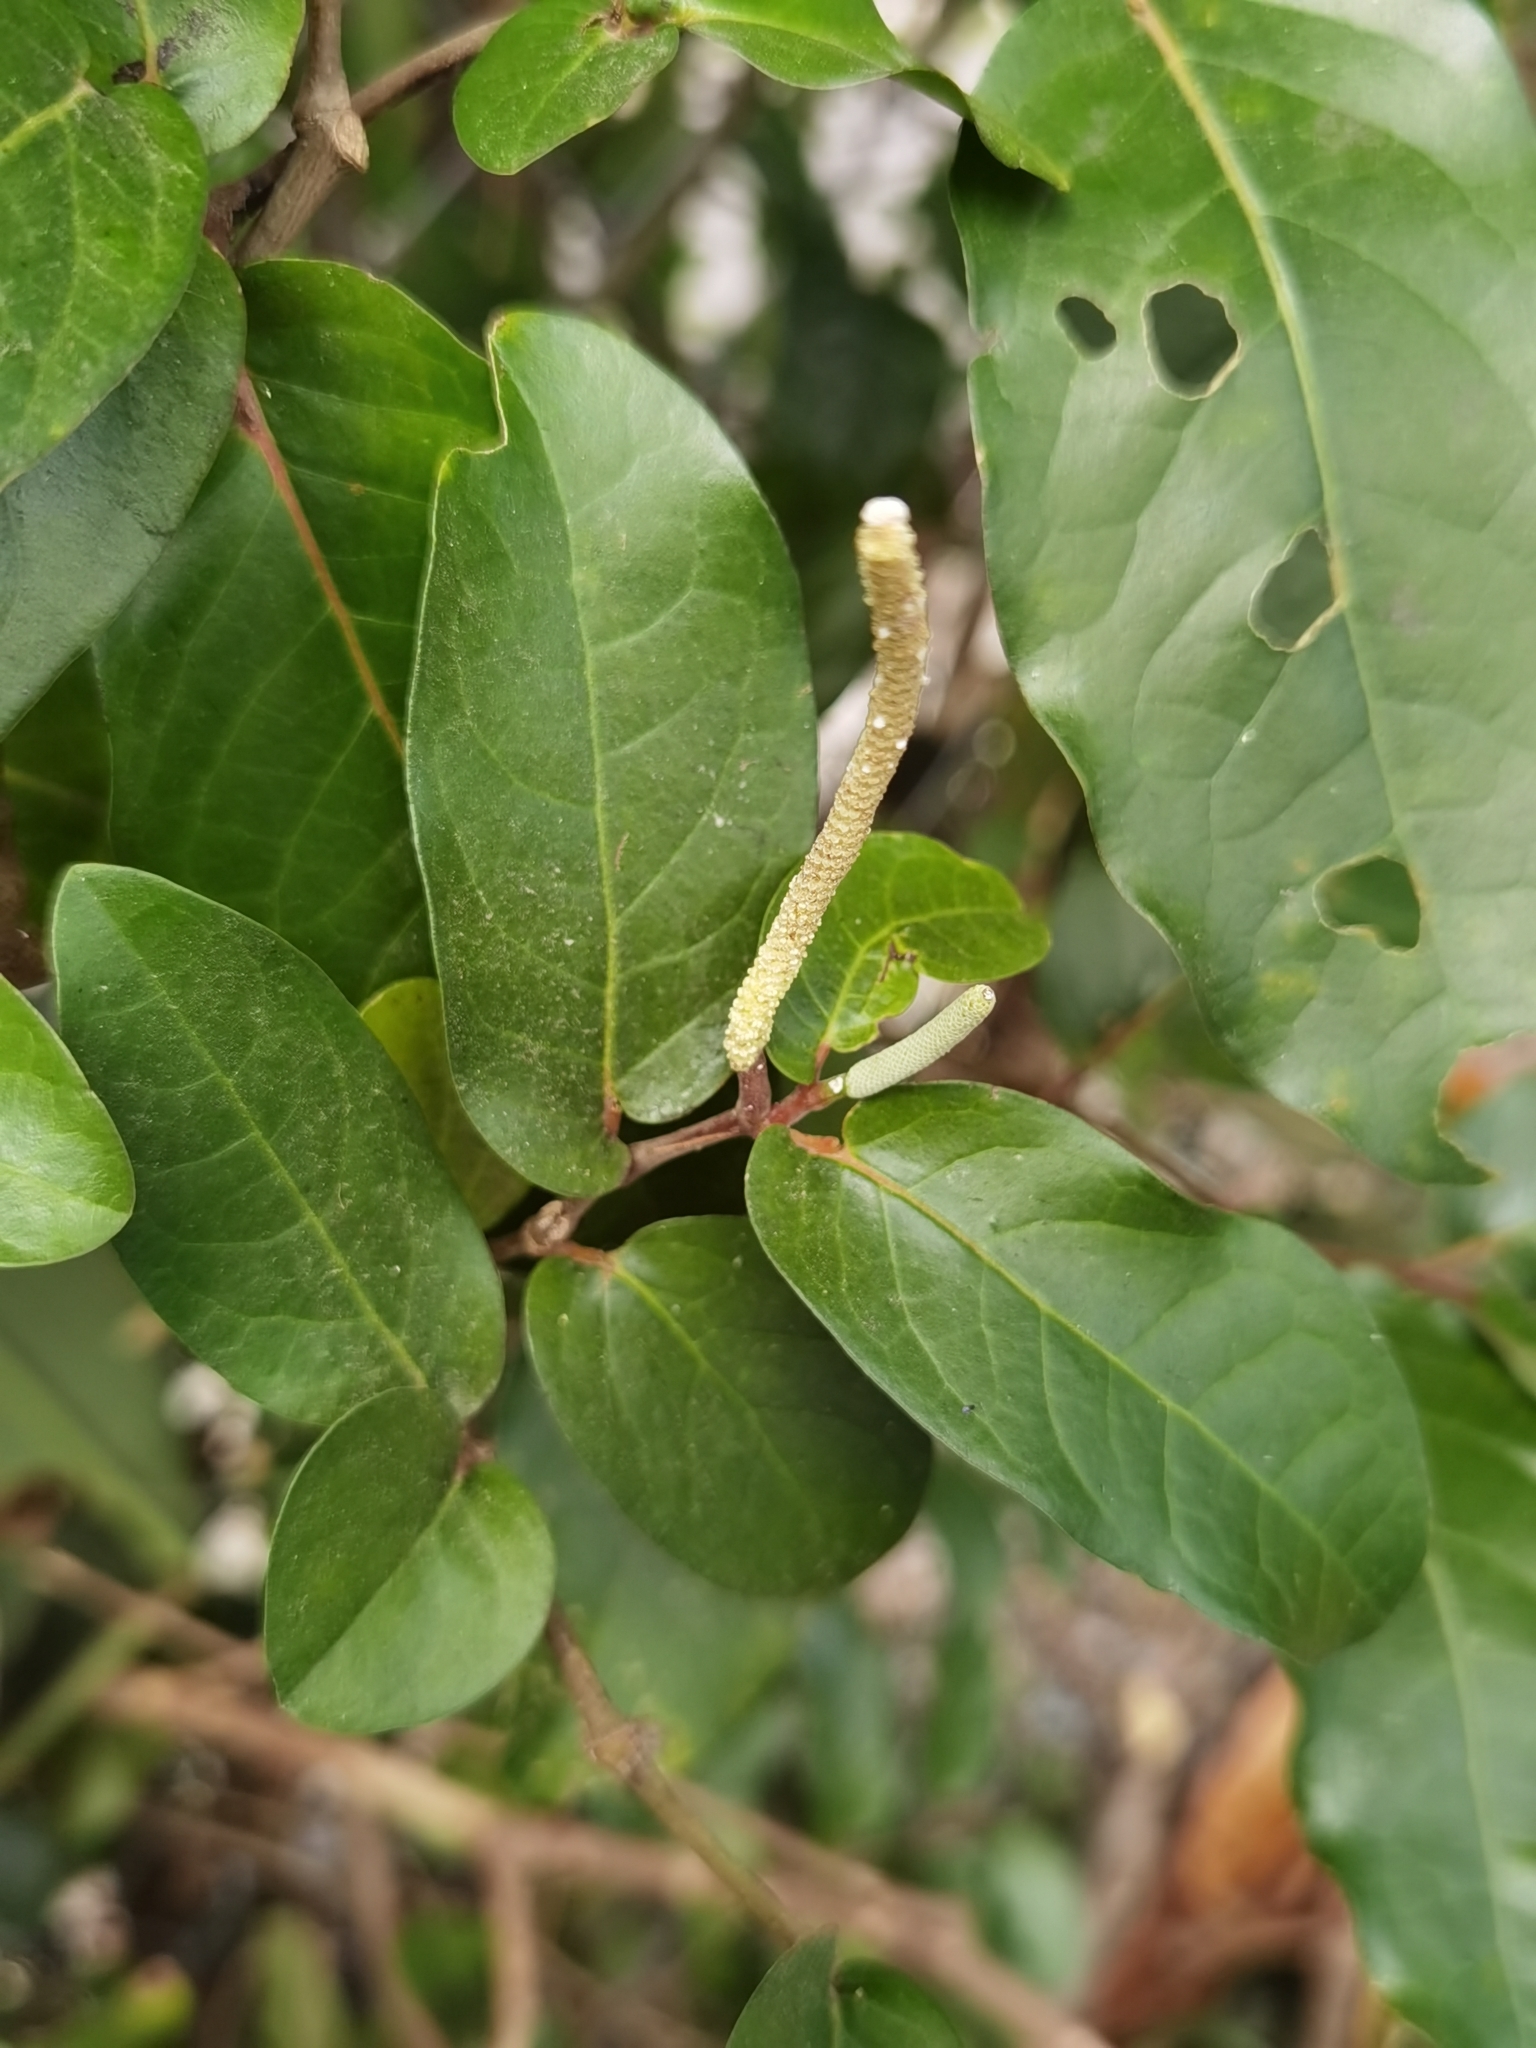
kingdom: Plantae
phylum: Tracheophyta
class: Magnoliopsida
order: Piperales
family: Piperaceae
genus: Piper
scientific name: Piper tuberculatum
